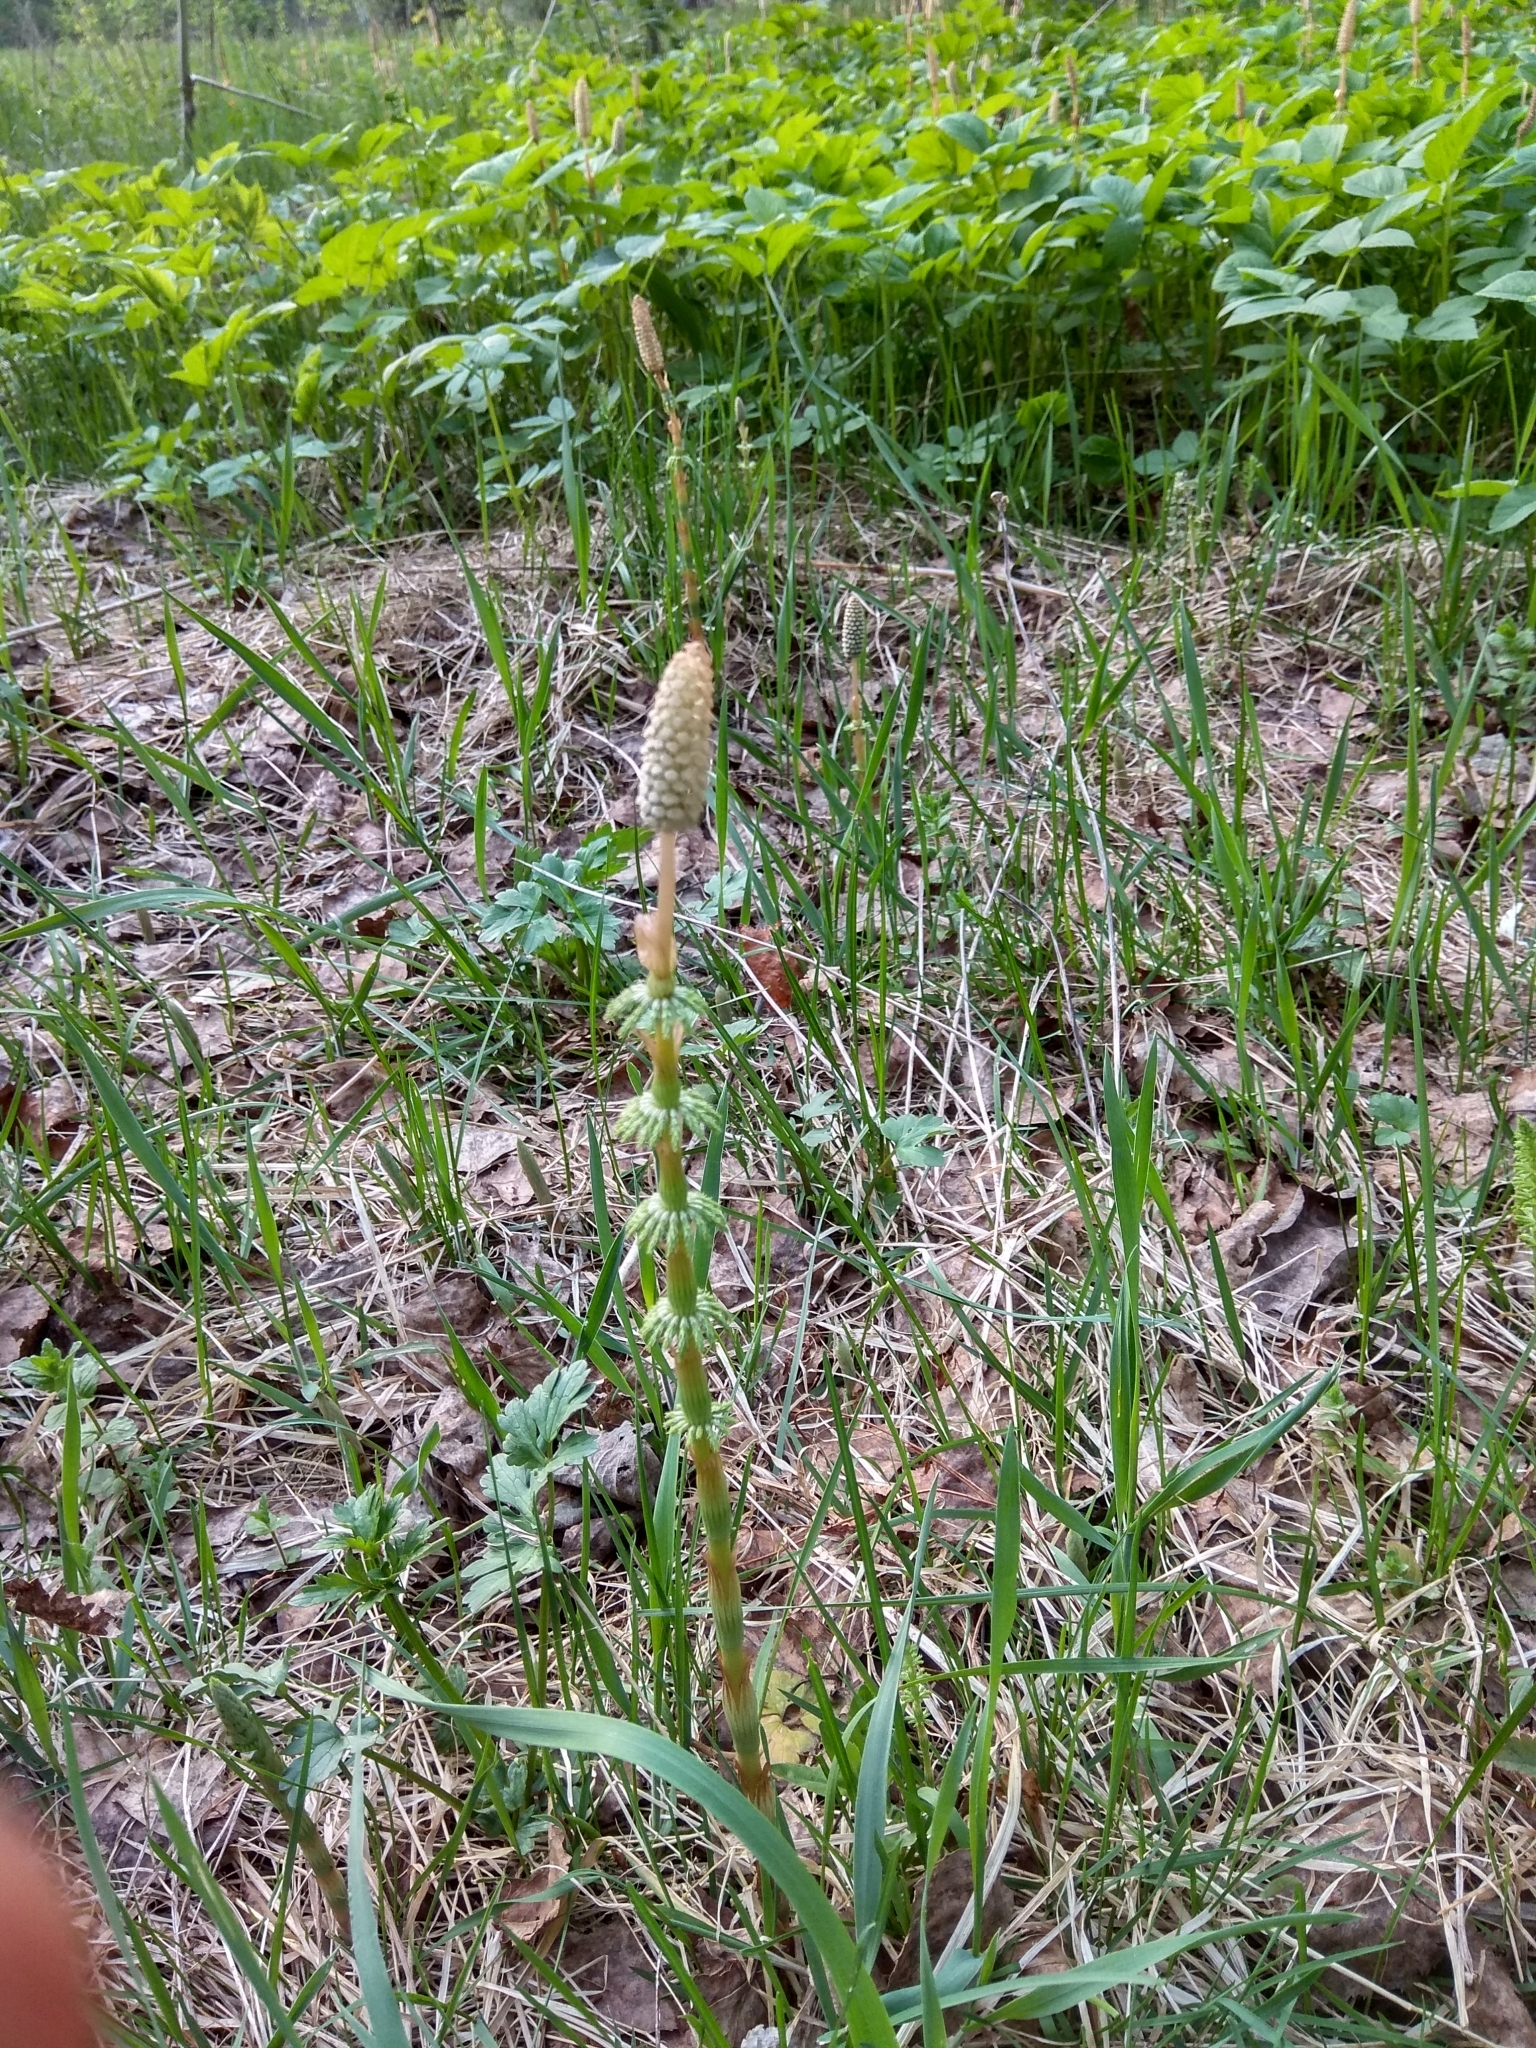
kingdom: Plantae
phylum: Tracheophyta
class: Polypodiopsida
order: Equisetales
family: Equisetaceae
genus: Equisetum
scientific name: Equisetum sylvaticum
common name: Wood horsetail
